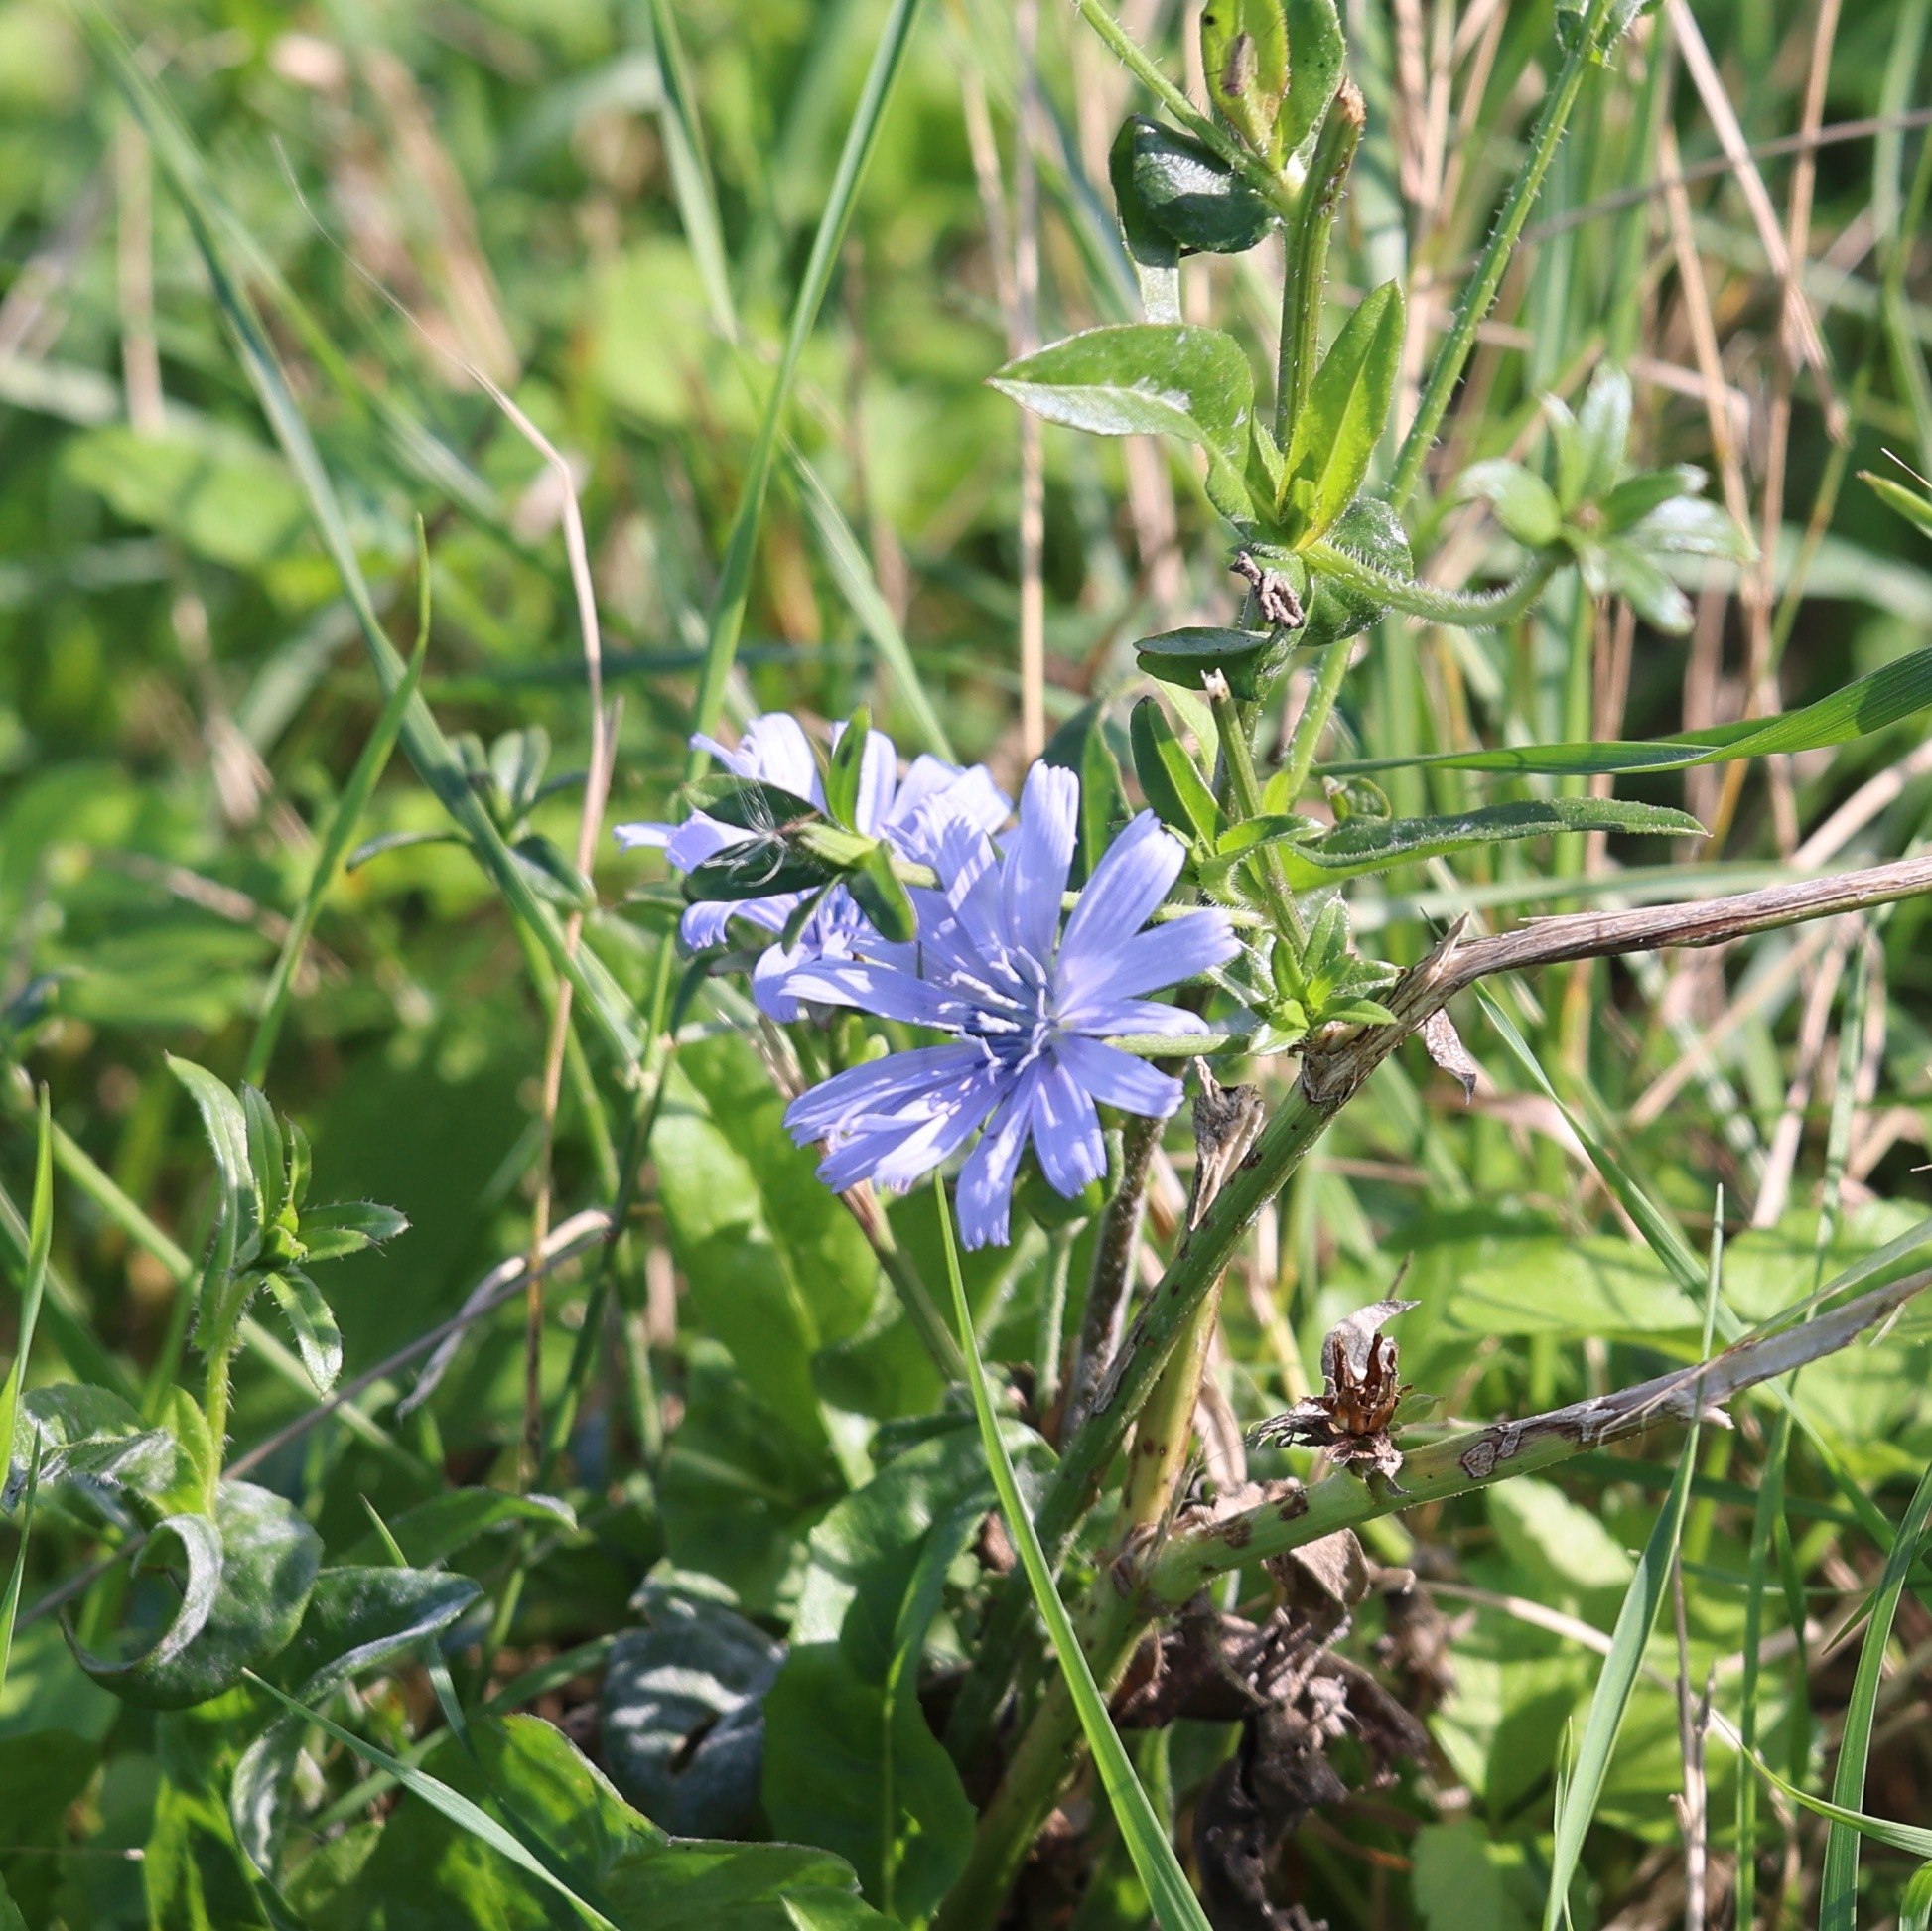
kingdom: Plantae
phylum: Tracheophyta
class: Magnoliopsida
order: Asterales
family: Asteraceae
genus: Cichorium
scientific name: Cichorium intybus
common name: Chicory
